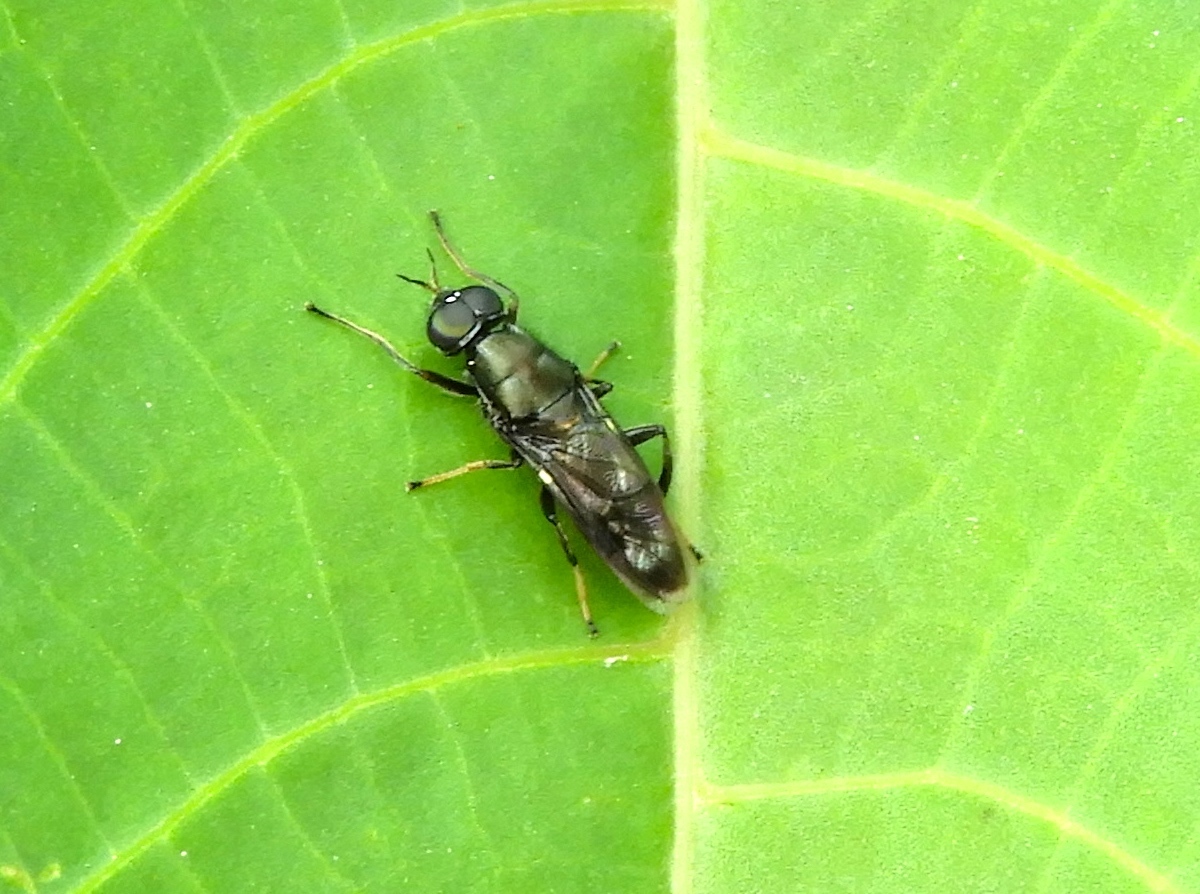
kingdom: Animalia
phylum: Arthropoda
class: Insecta
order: Diptera
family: Stratiomyidae
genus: Myxosargus
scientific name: Myxosargus
